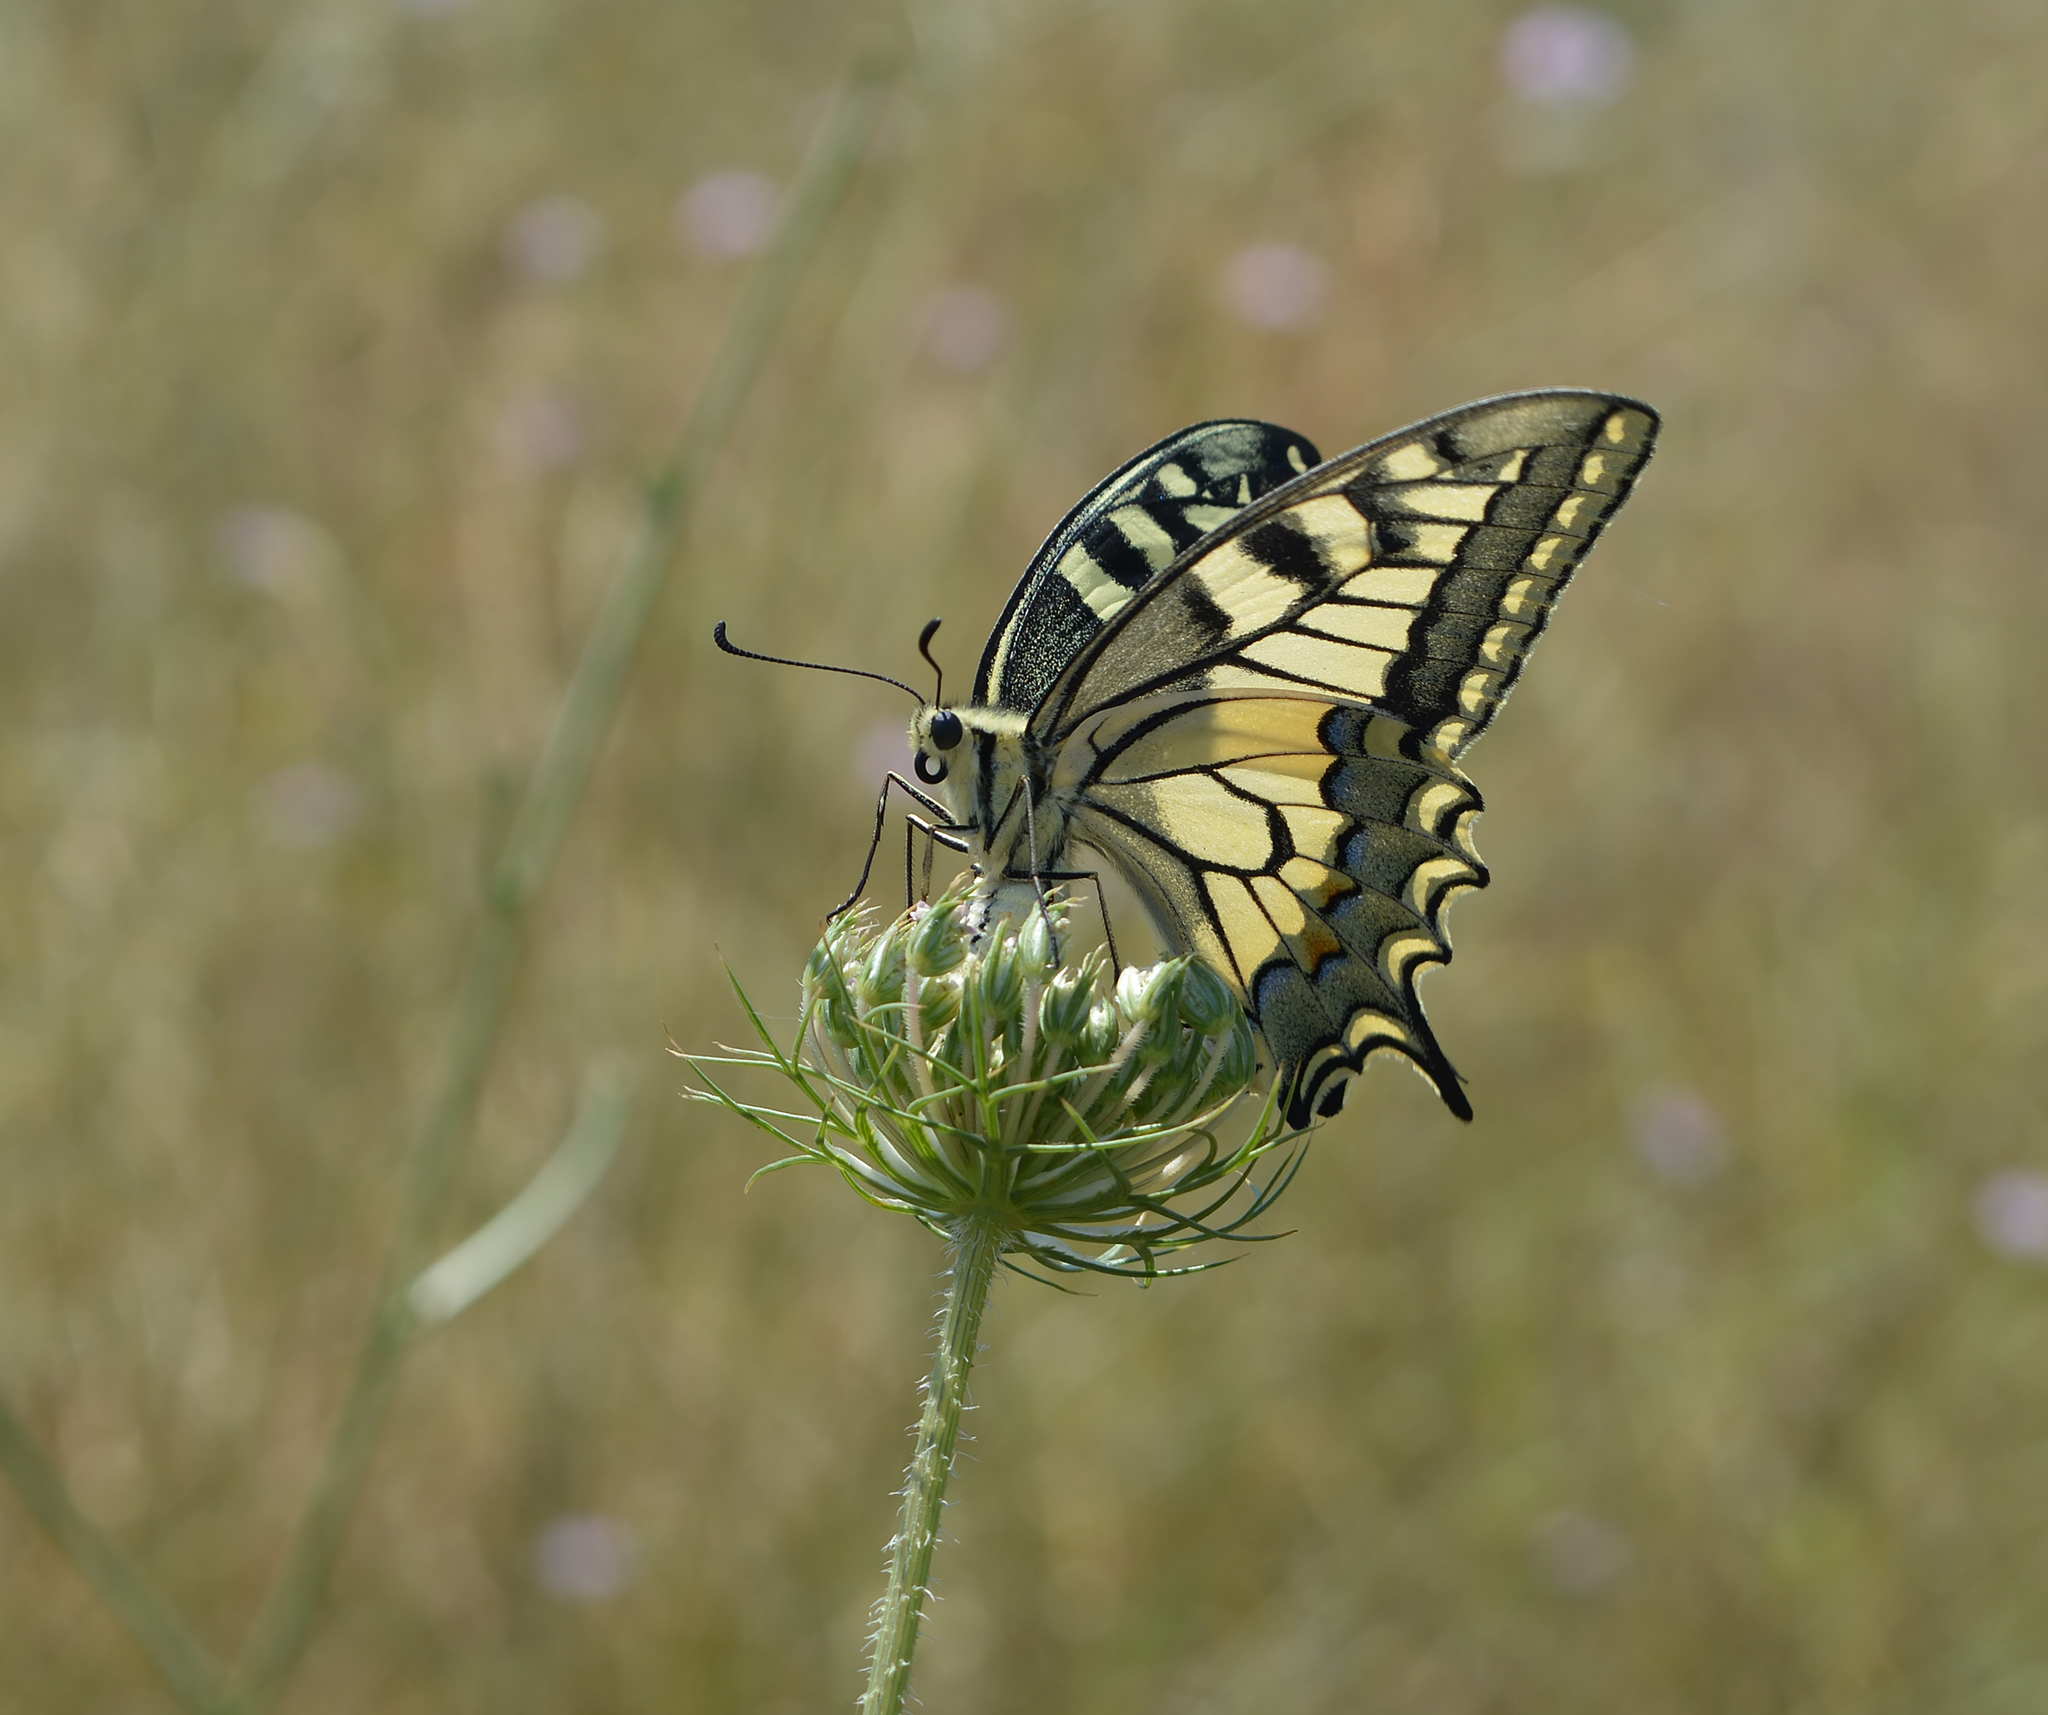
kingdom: Animalia
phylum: Arthropoda
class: Insecta
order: Lepidoptera
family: Papilionidae
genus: Papilio
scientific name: Papilio machaon
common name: Swallowtail
